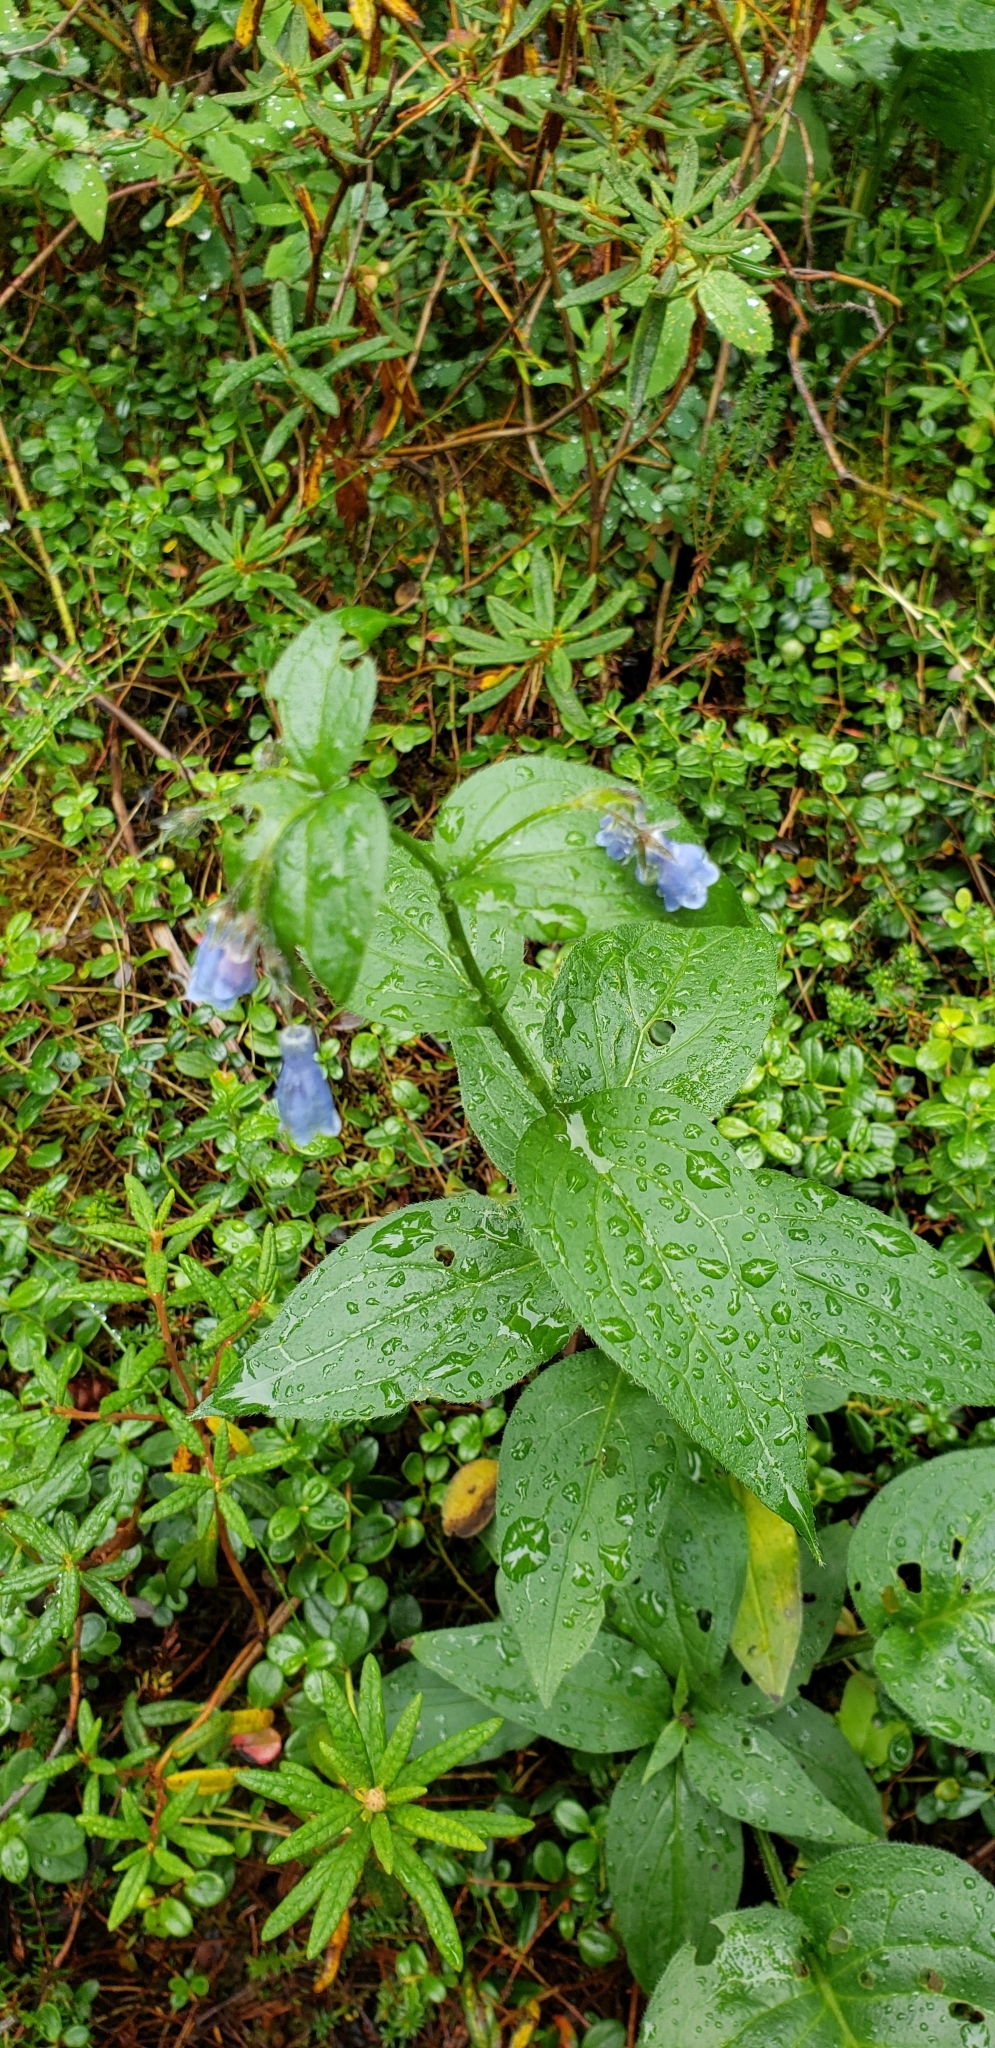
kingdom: Plantae
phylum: Tracheophyta
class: Magnoliopsida
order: Boraginales
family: Boraginaceae
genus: Mertensia
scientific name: Mertensia paniculata
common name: Panicled bluebells
